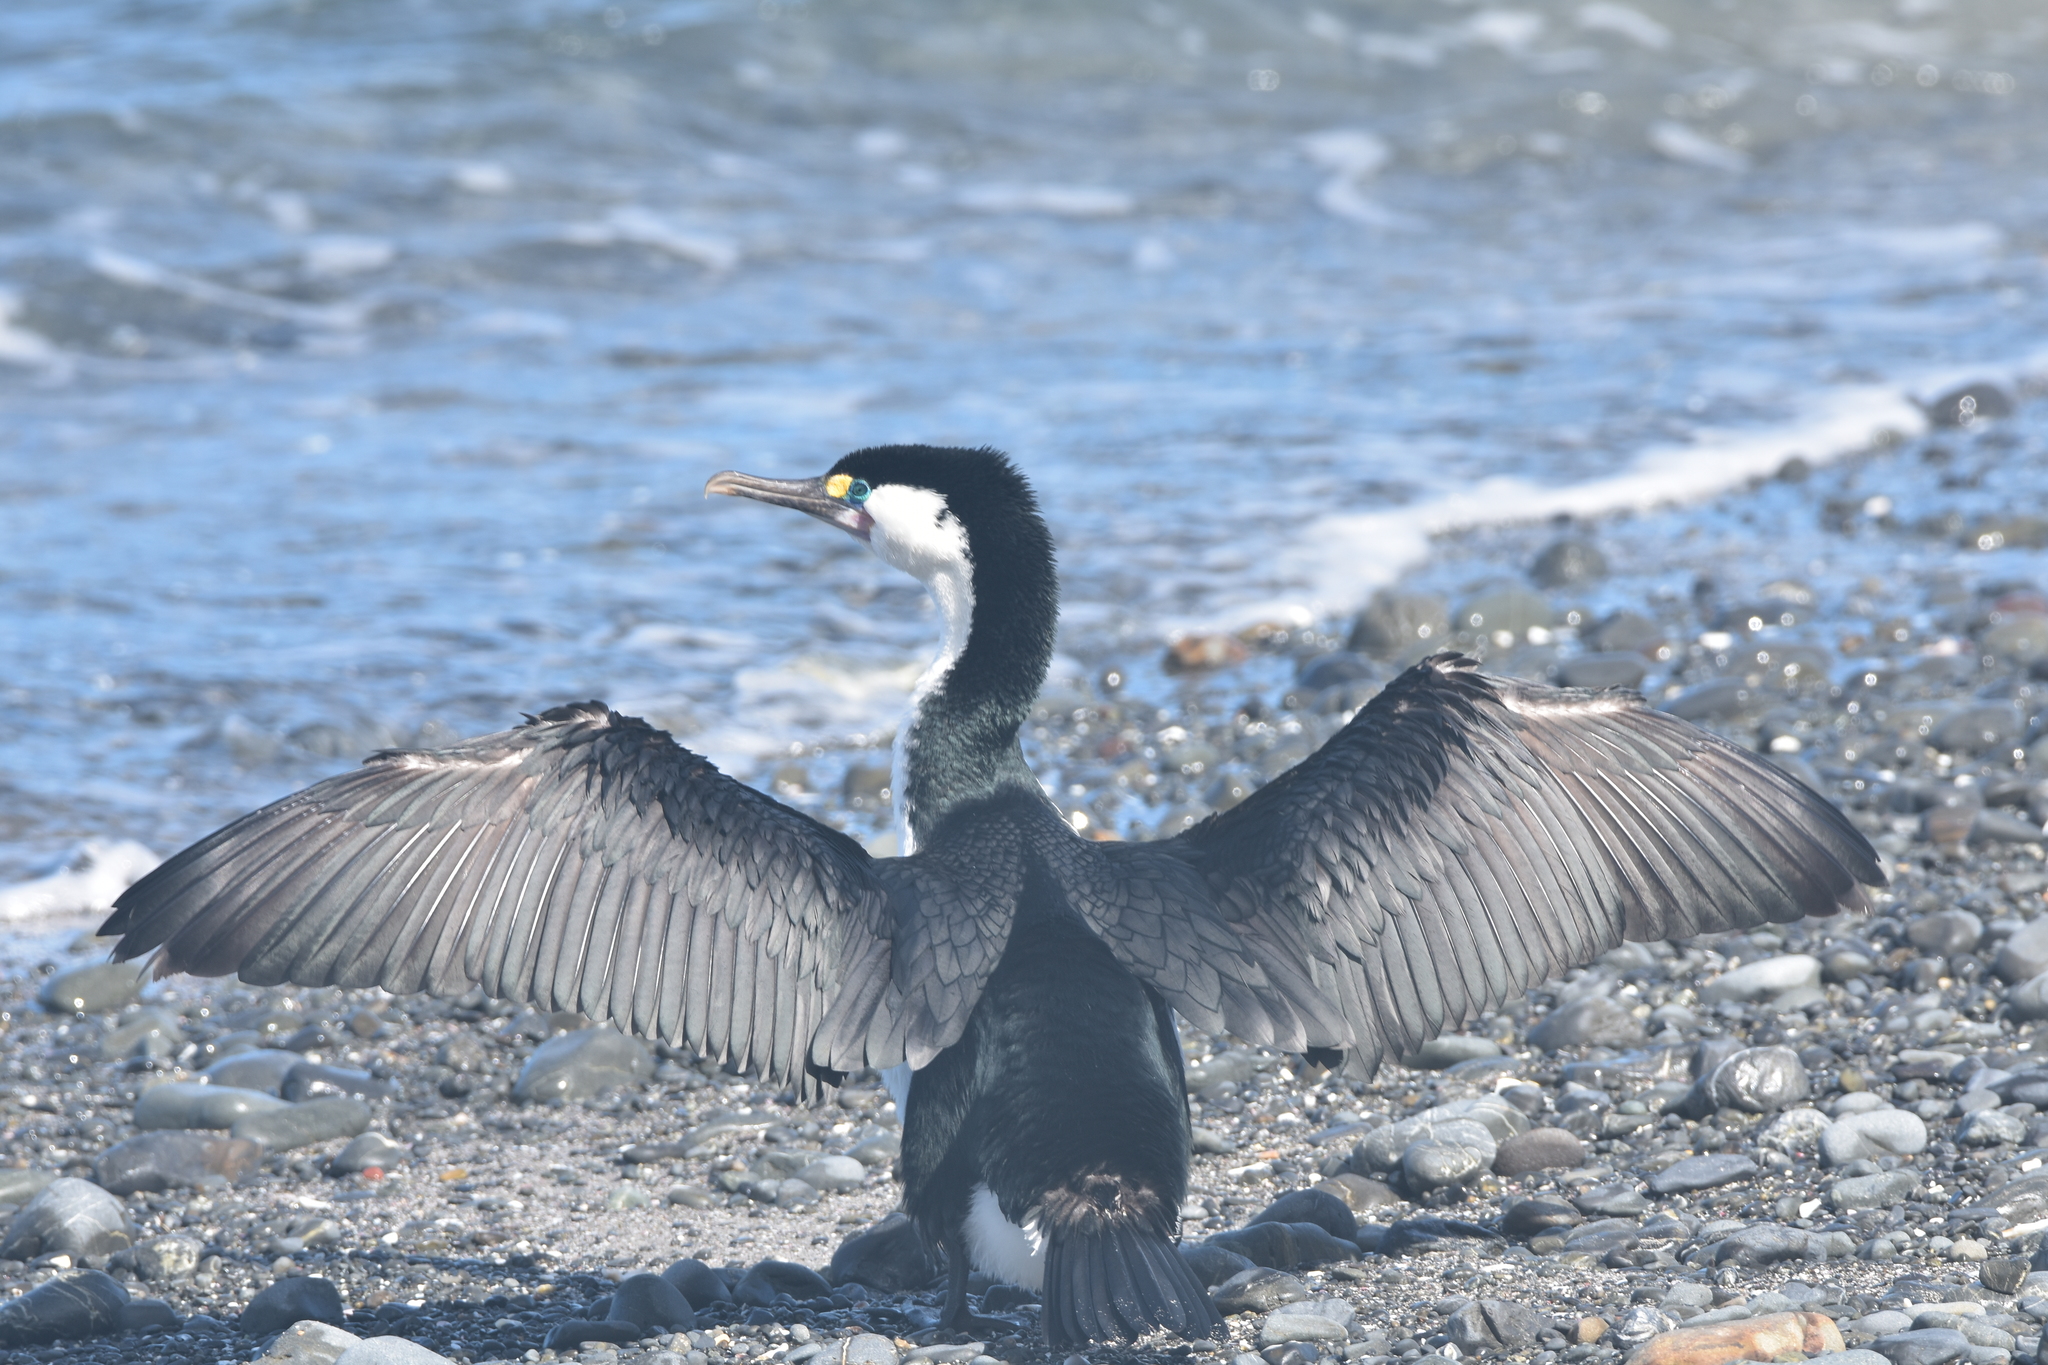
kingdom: Animalia
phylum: Chordata
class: Aves
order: Suliformes
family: Phalacrocoracidae
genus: Phalacrocorax
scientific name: Phalacrocorax varius
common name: Pied cormorant
